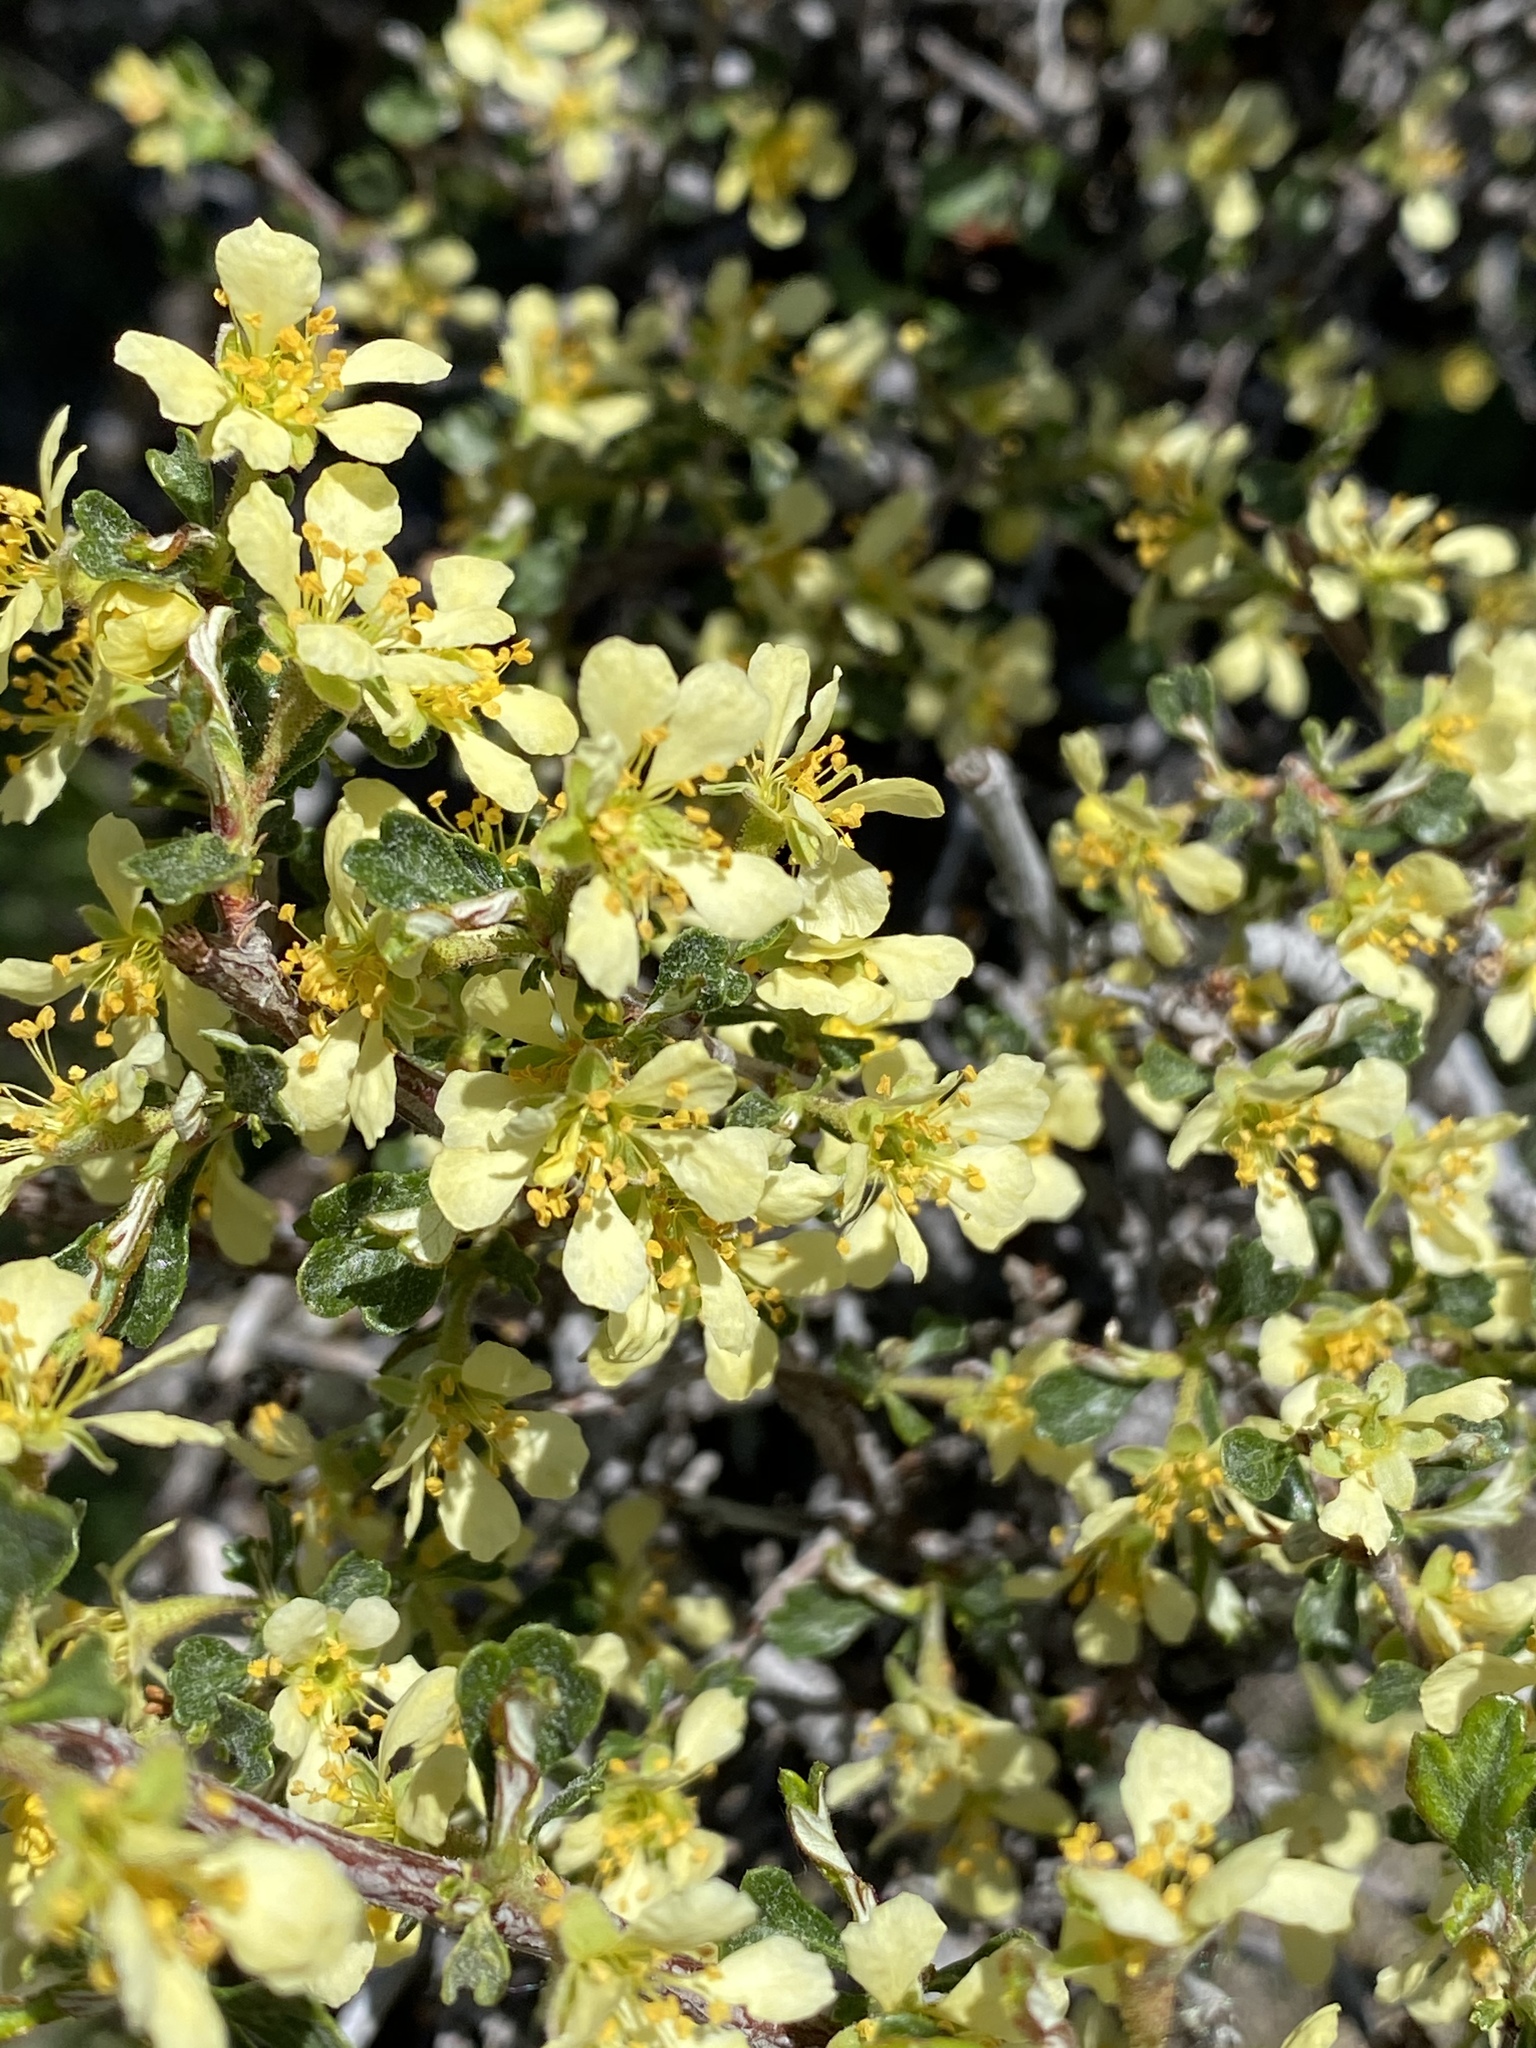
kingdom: Plantae
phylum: Tracheophyta
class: Magnoliopsida
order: Rosales
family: Rosaceae
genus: Purshia
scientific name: Purshia tridentata
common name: Antelope bitterbrush
